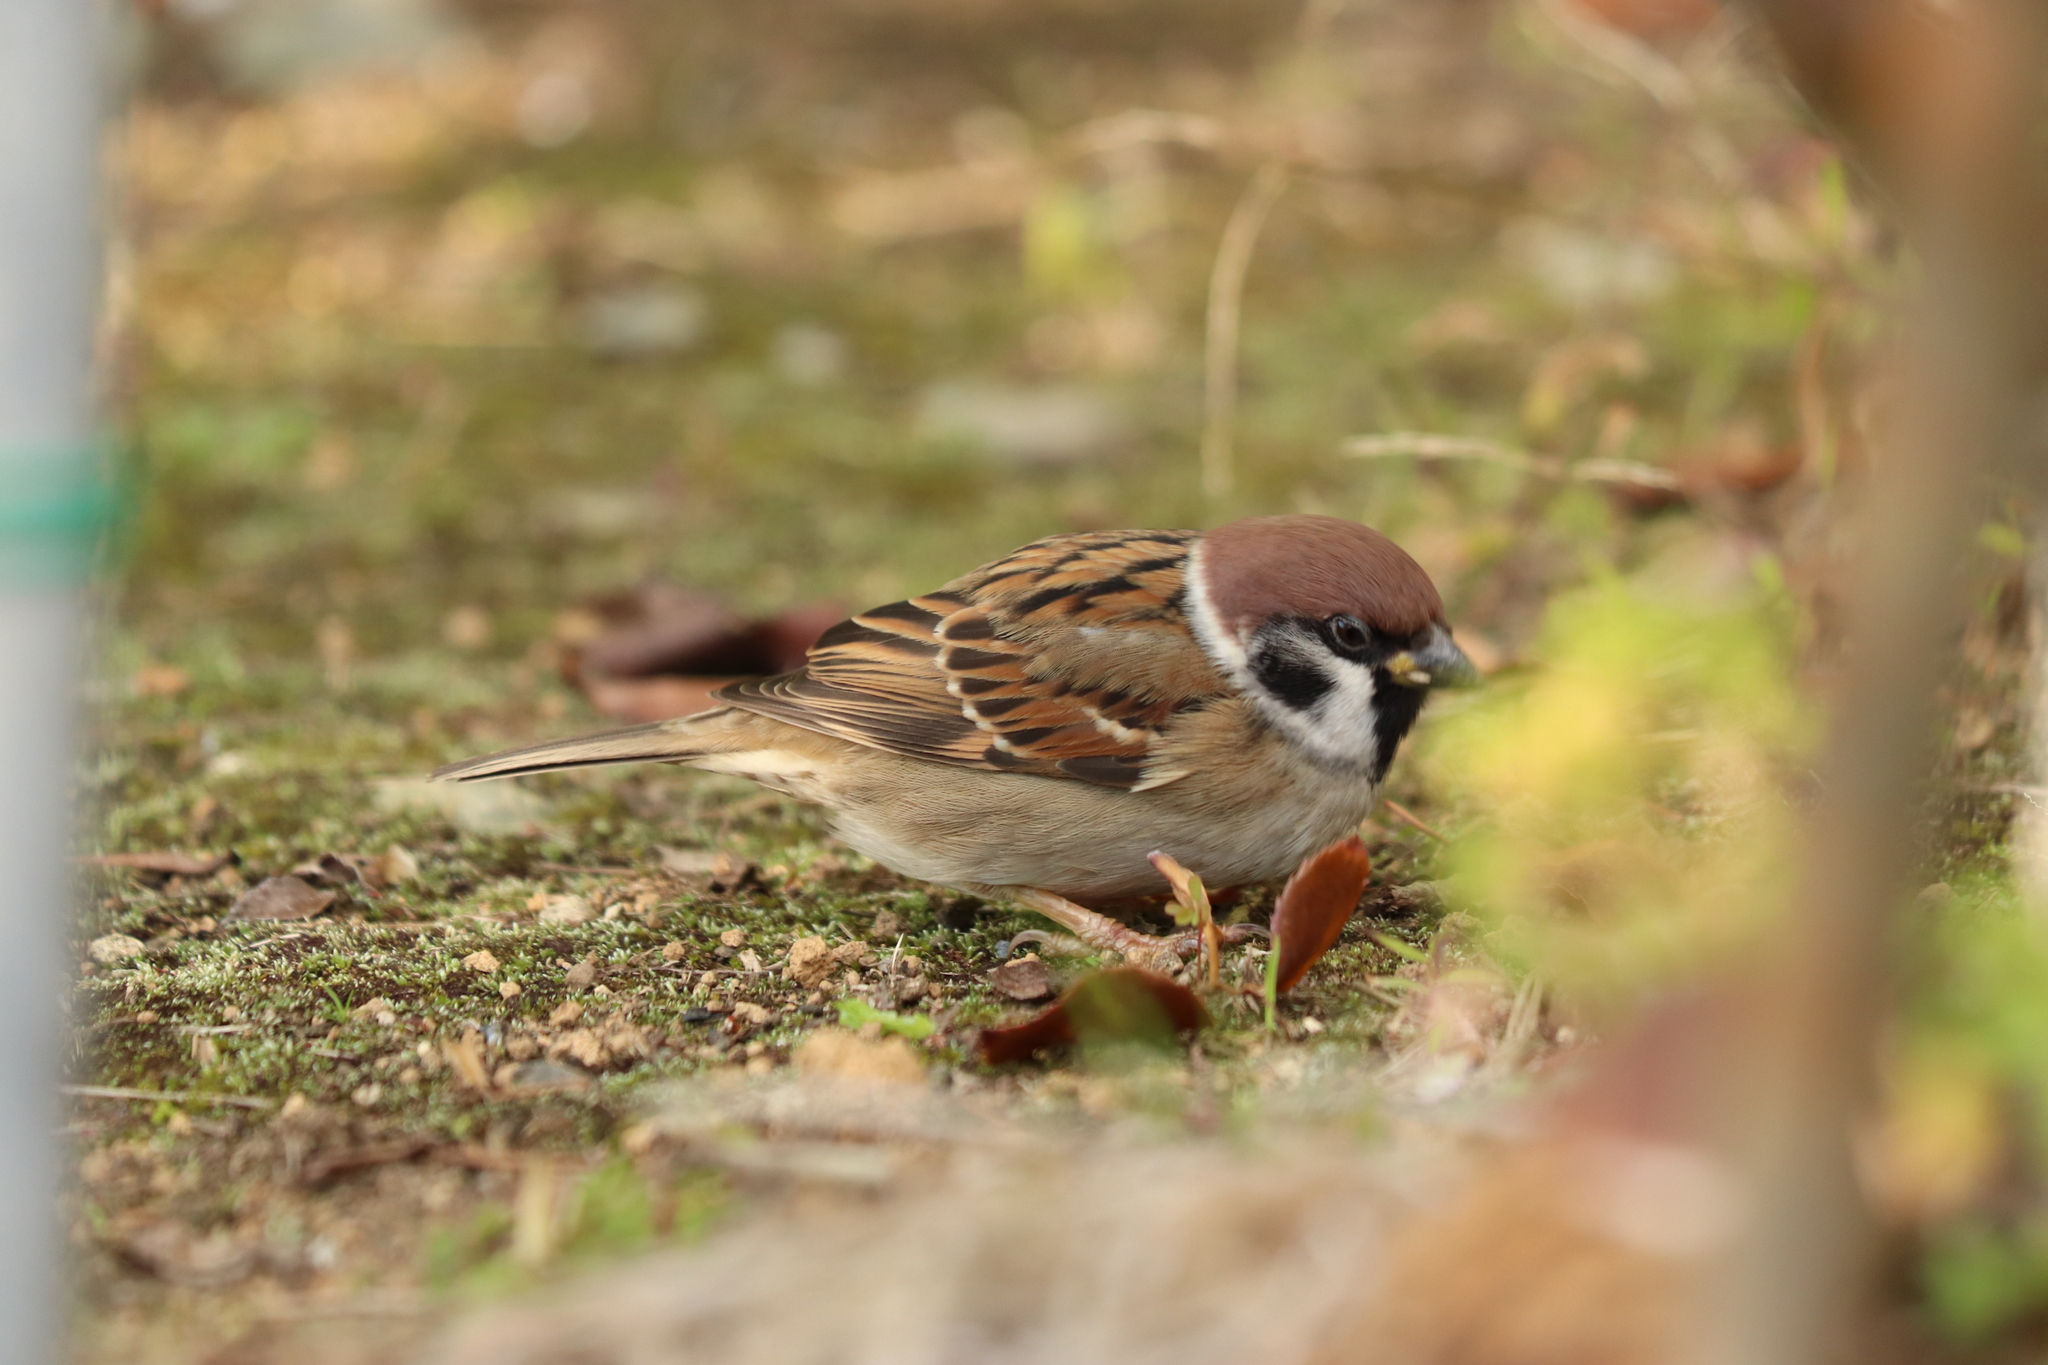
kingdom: Animalia
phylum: Chordata
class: Aves
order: Passeriformes
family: Passeridae
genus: Passer
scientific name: Passer montanus
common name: Eurasian tree sparrow
